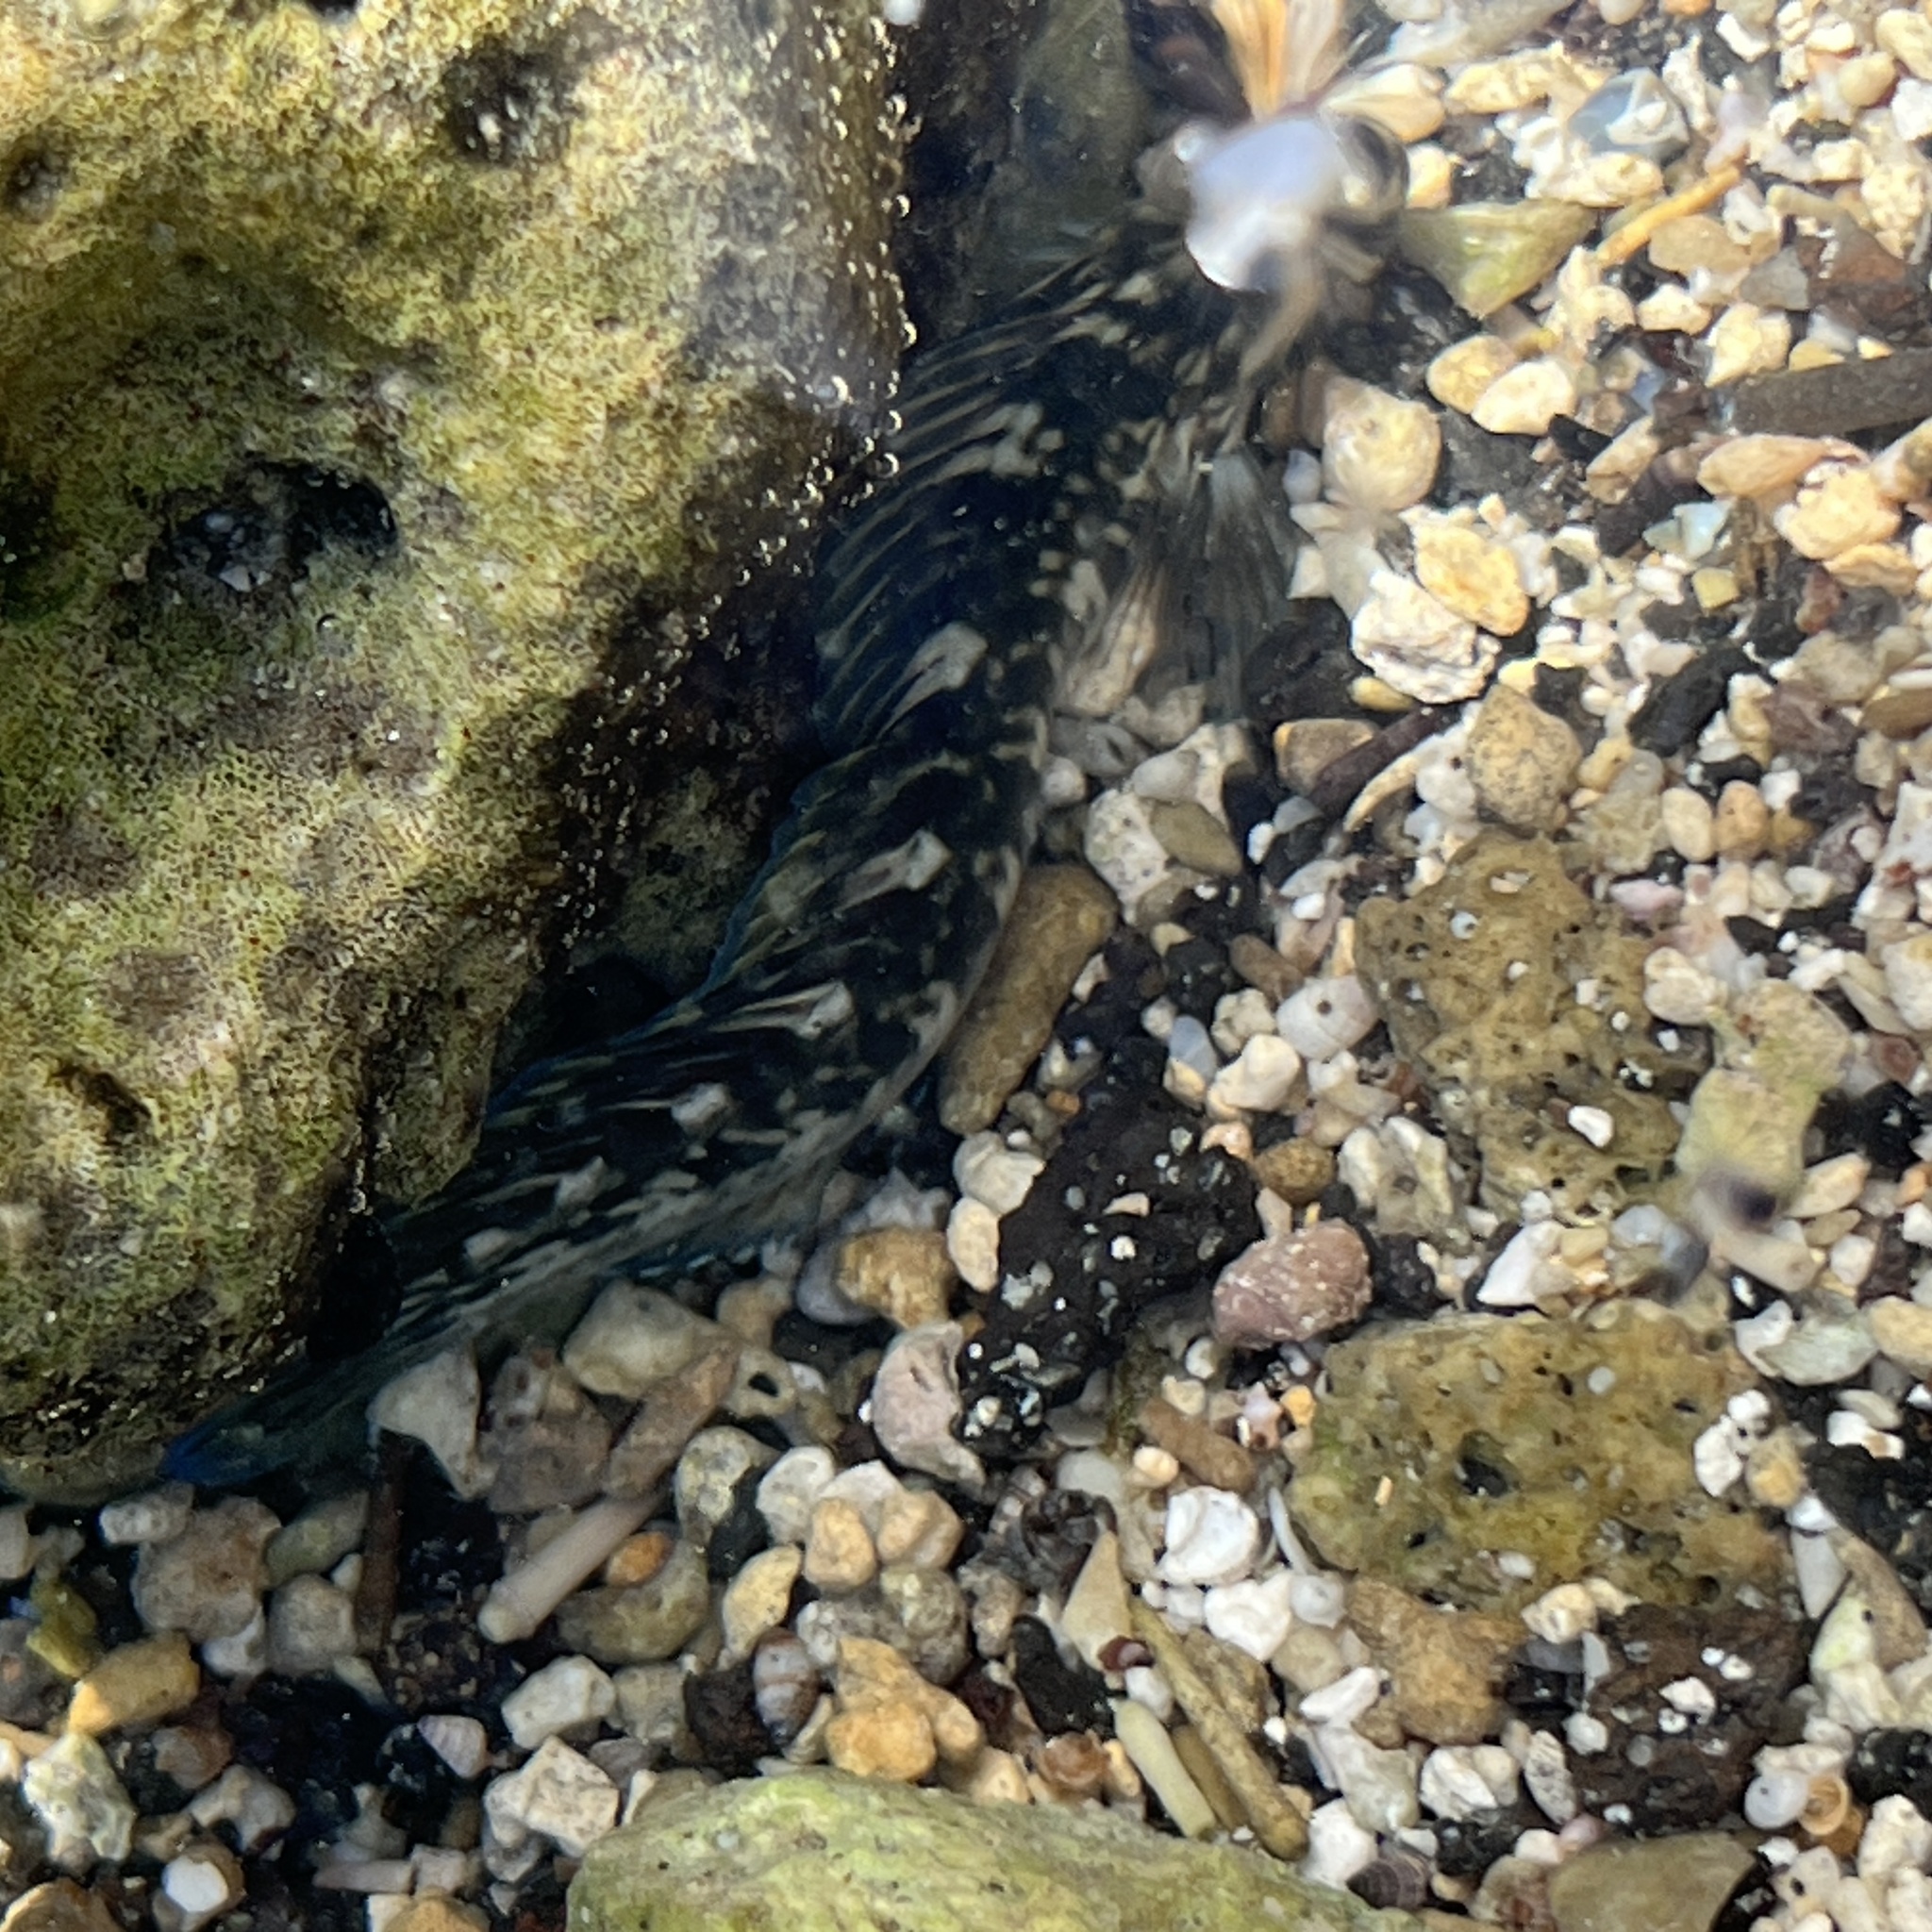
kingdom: Animalia
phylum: Chordata
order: Perciformes
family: Blenniidae
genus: Istiblennius
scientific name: Istiblennius zebra
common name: Zebra blenny
